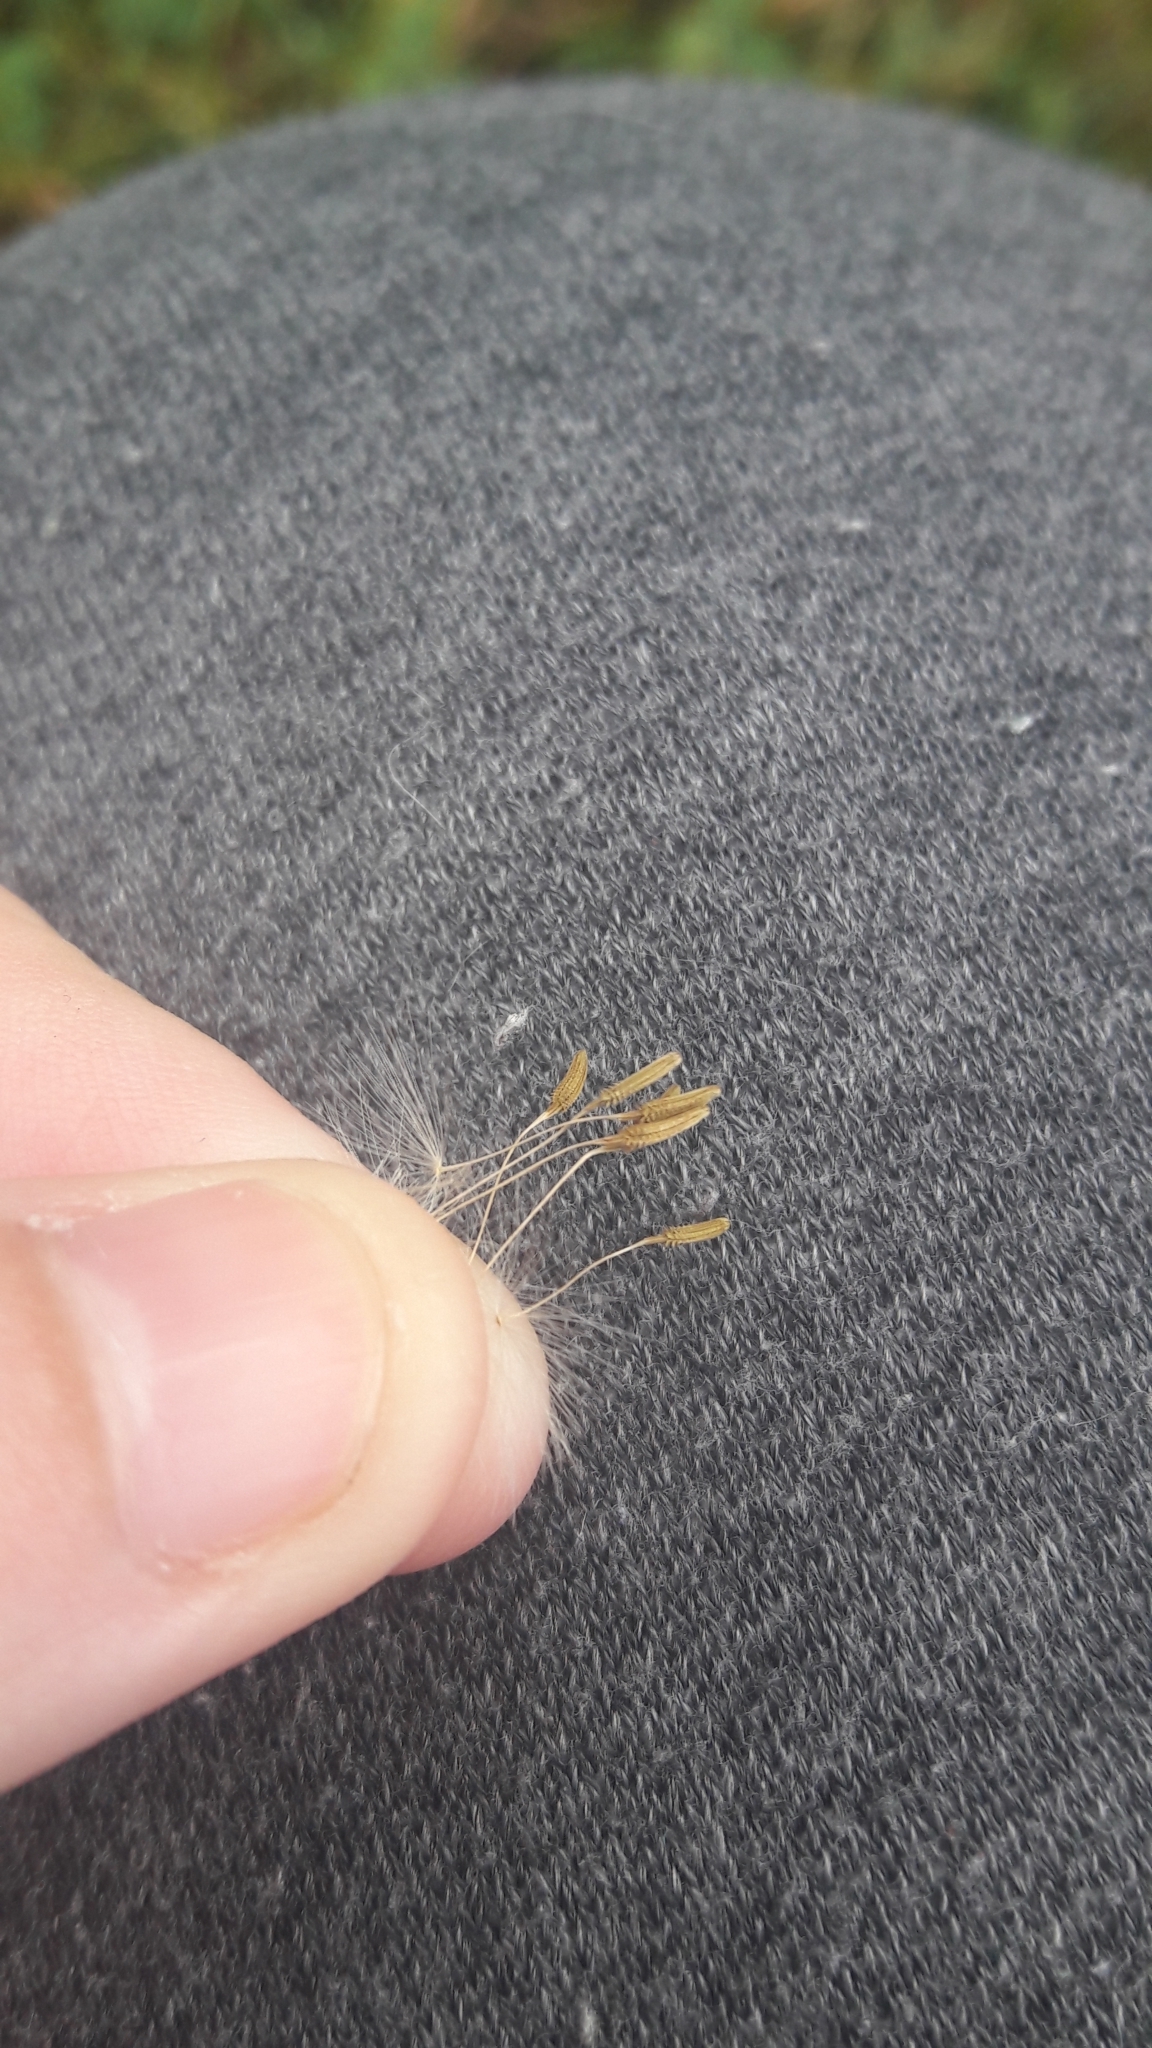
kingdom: Plantae
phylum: Tracheophyta
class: Magnoliopsida
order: Asterales
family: Asteraceae
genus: Taraxacum
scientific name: Taraxacum officinale
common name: Common dandelion
